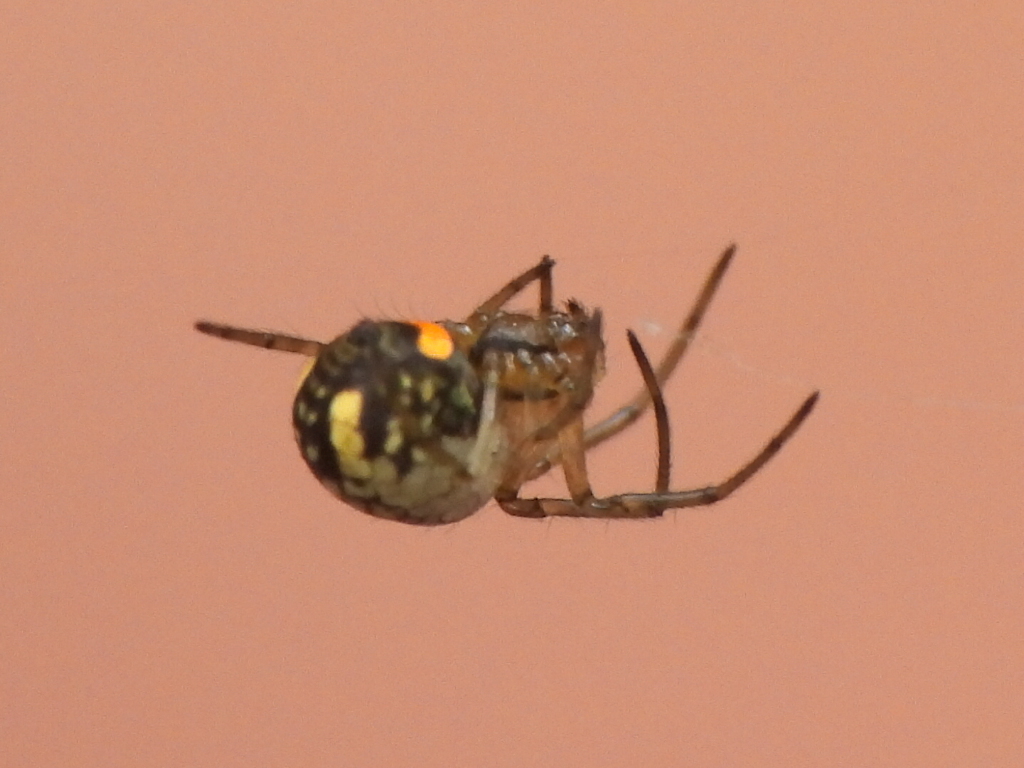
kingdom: Animalia
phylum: Arthropoda
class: Arachnida
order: Araneae
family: Tetragnathidae
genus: Leucauge
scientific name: Leucauge venusta
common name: Longjawed orb weavers
